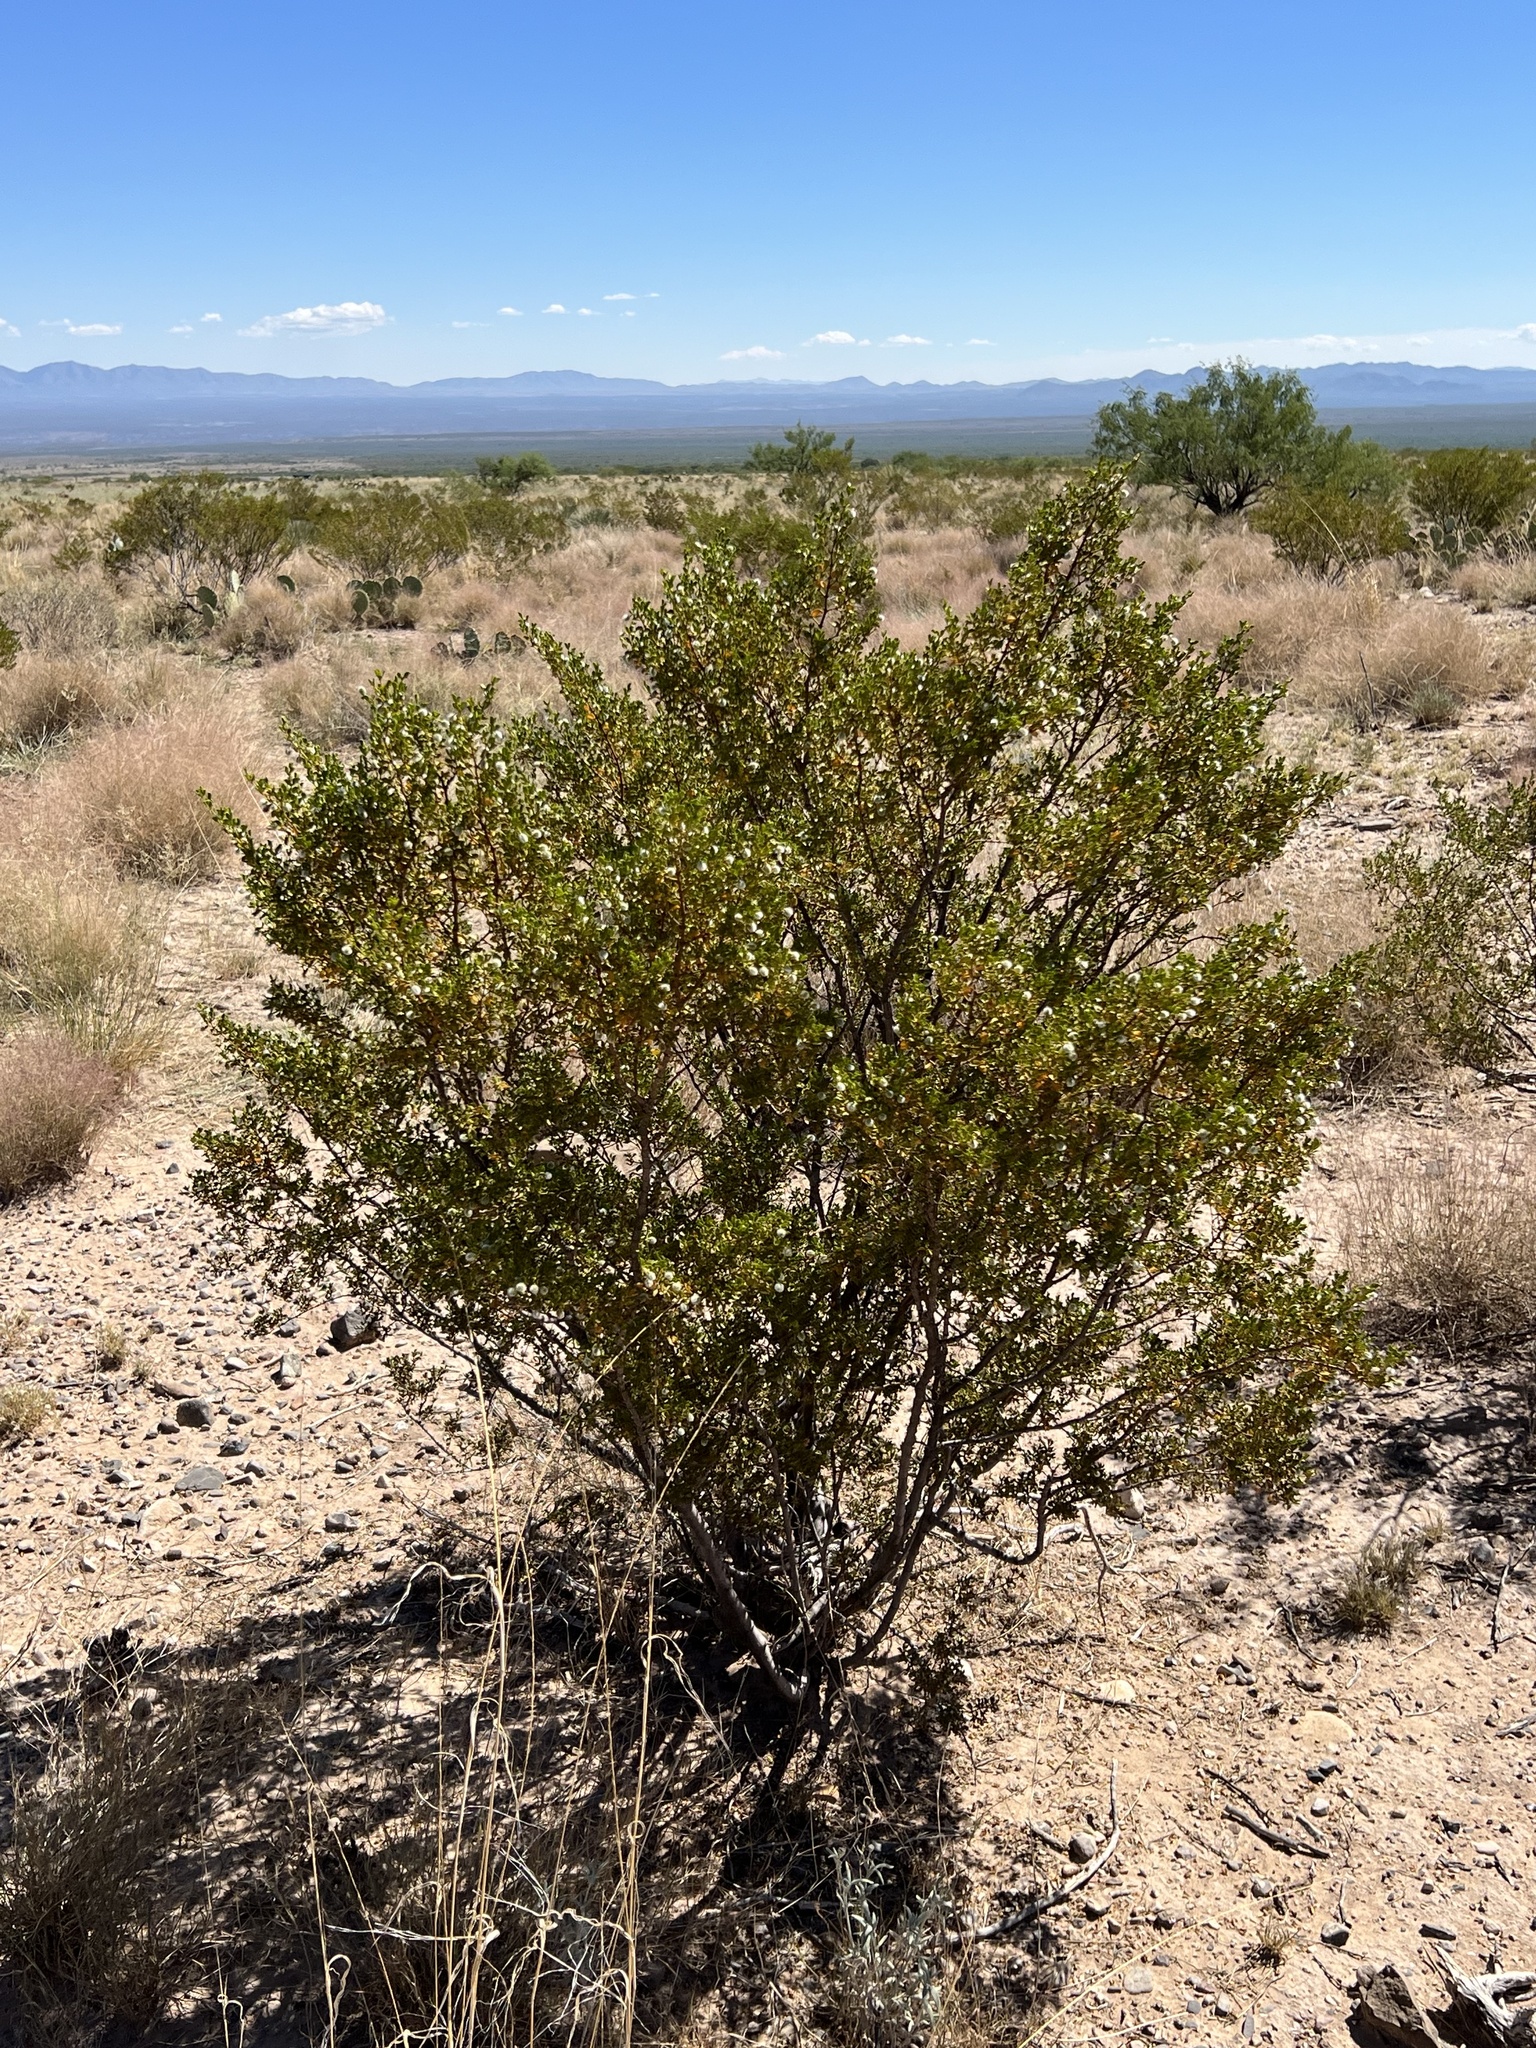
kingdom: Plantae
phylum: Tracheophyta
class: Magnoliopsida
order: Zygophyllales
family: Zygophyllaceae
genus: Larrea
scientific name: Larrea tridentata
